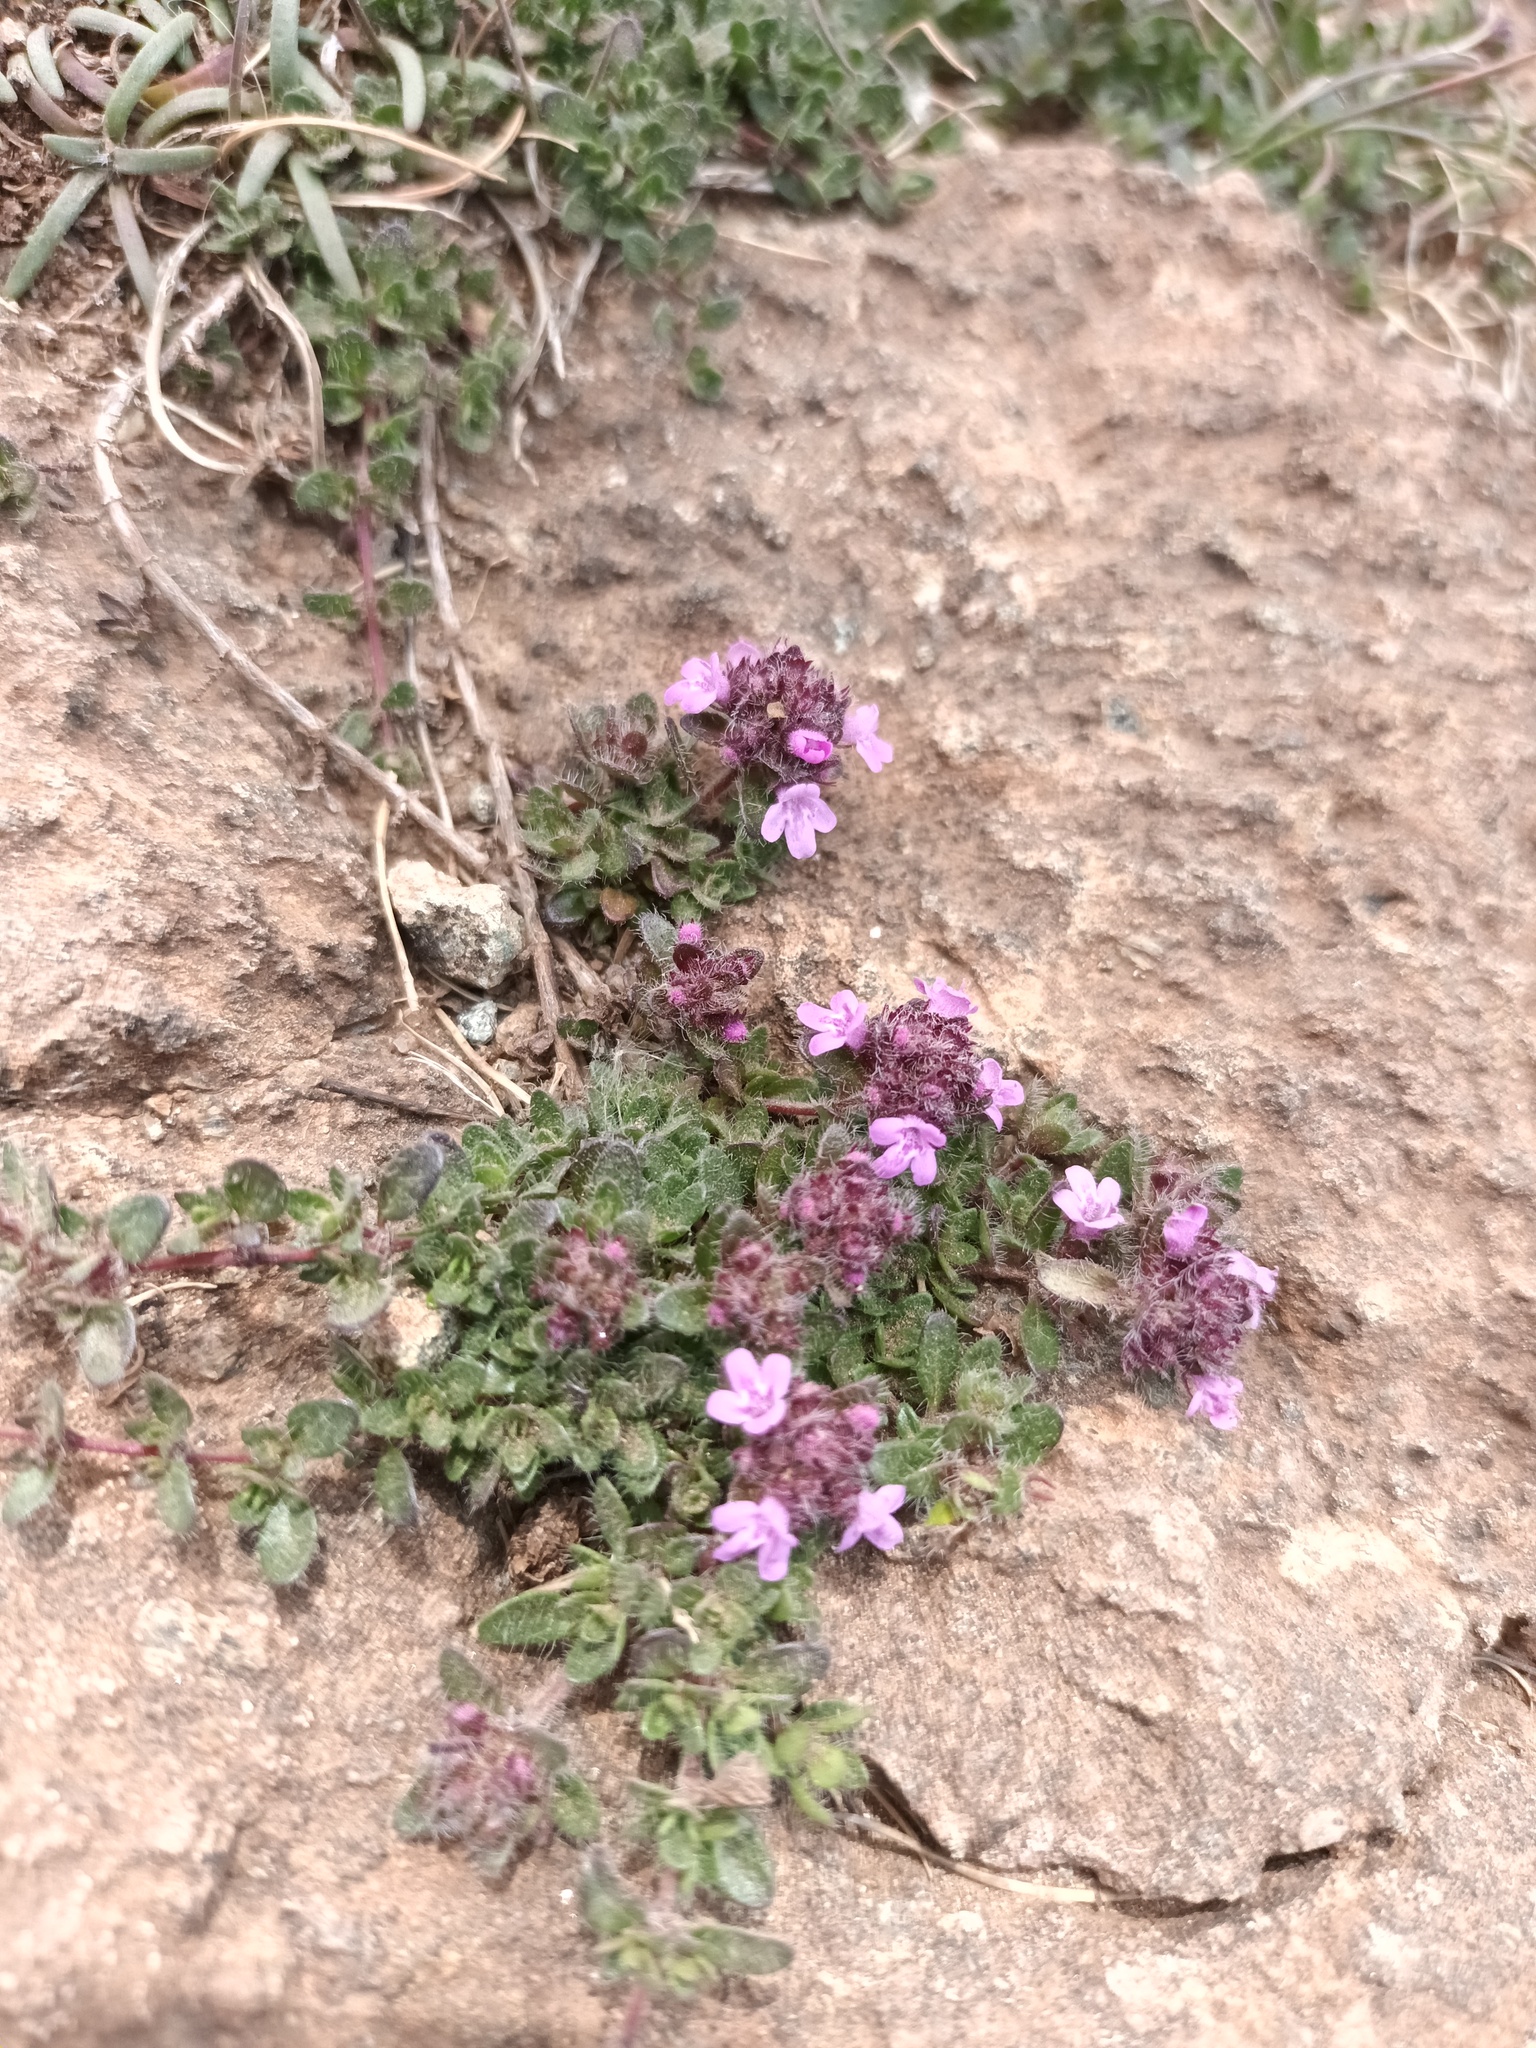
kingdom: Plantae
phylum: Tracheophyta
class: Magnoliopsida
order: Lamiales
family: Lamiaceae
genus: Thymus
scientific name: Thymus praecox
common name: Wild thyme
